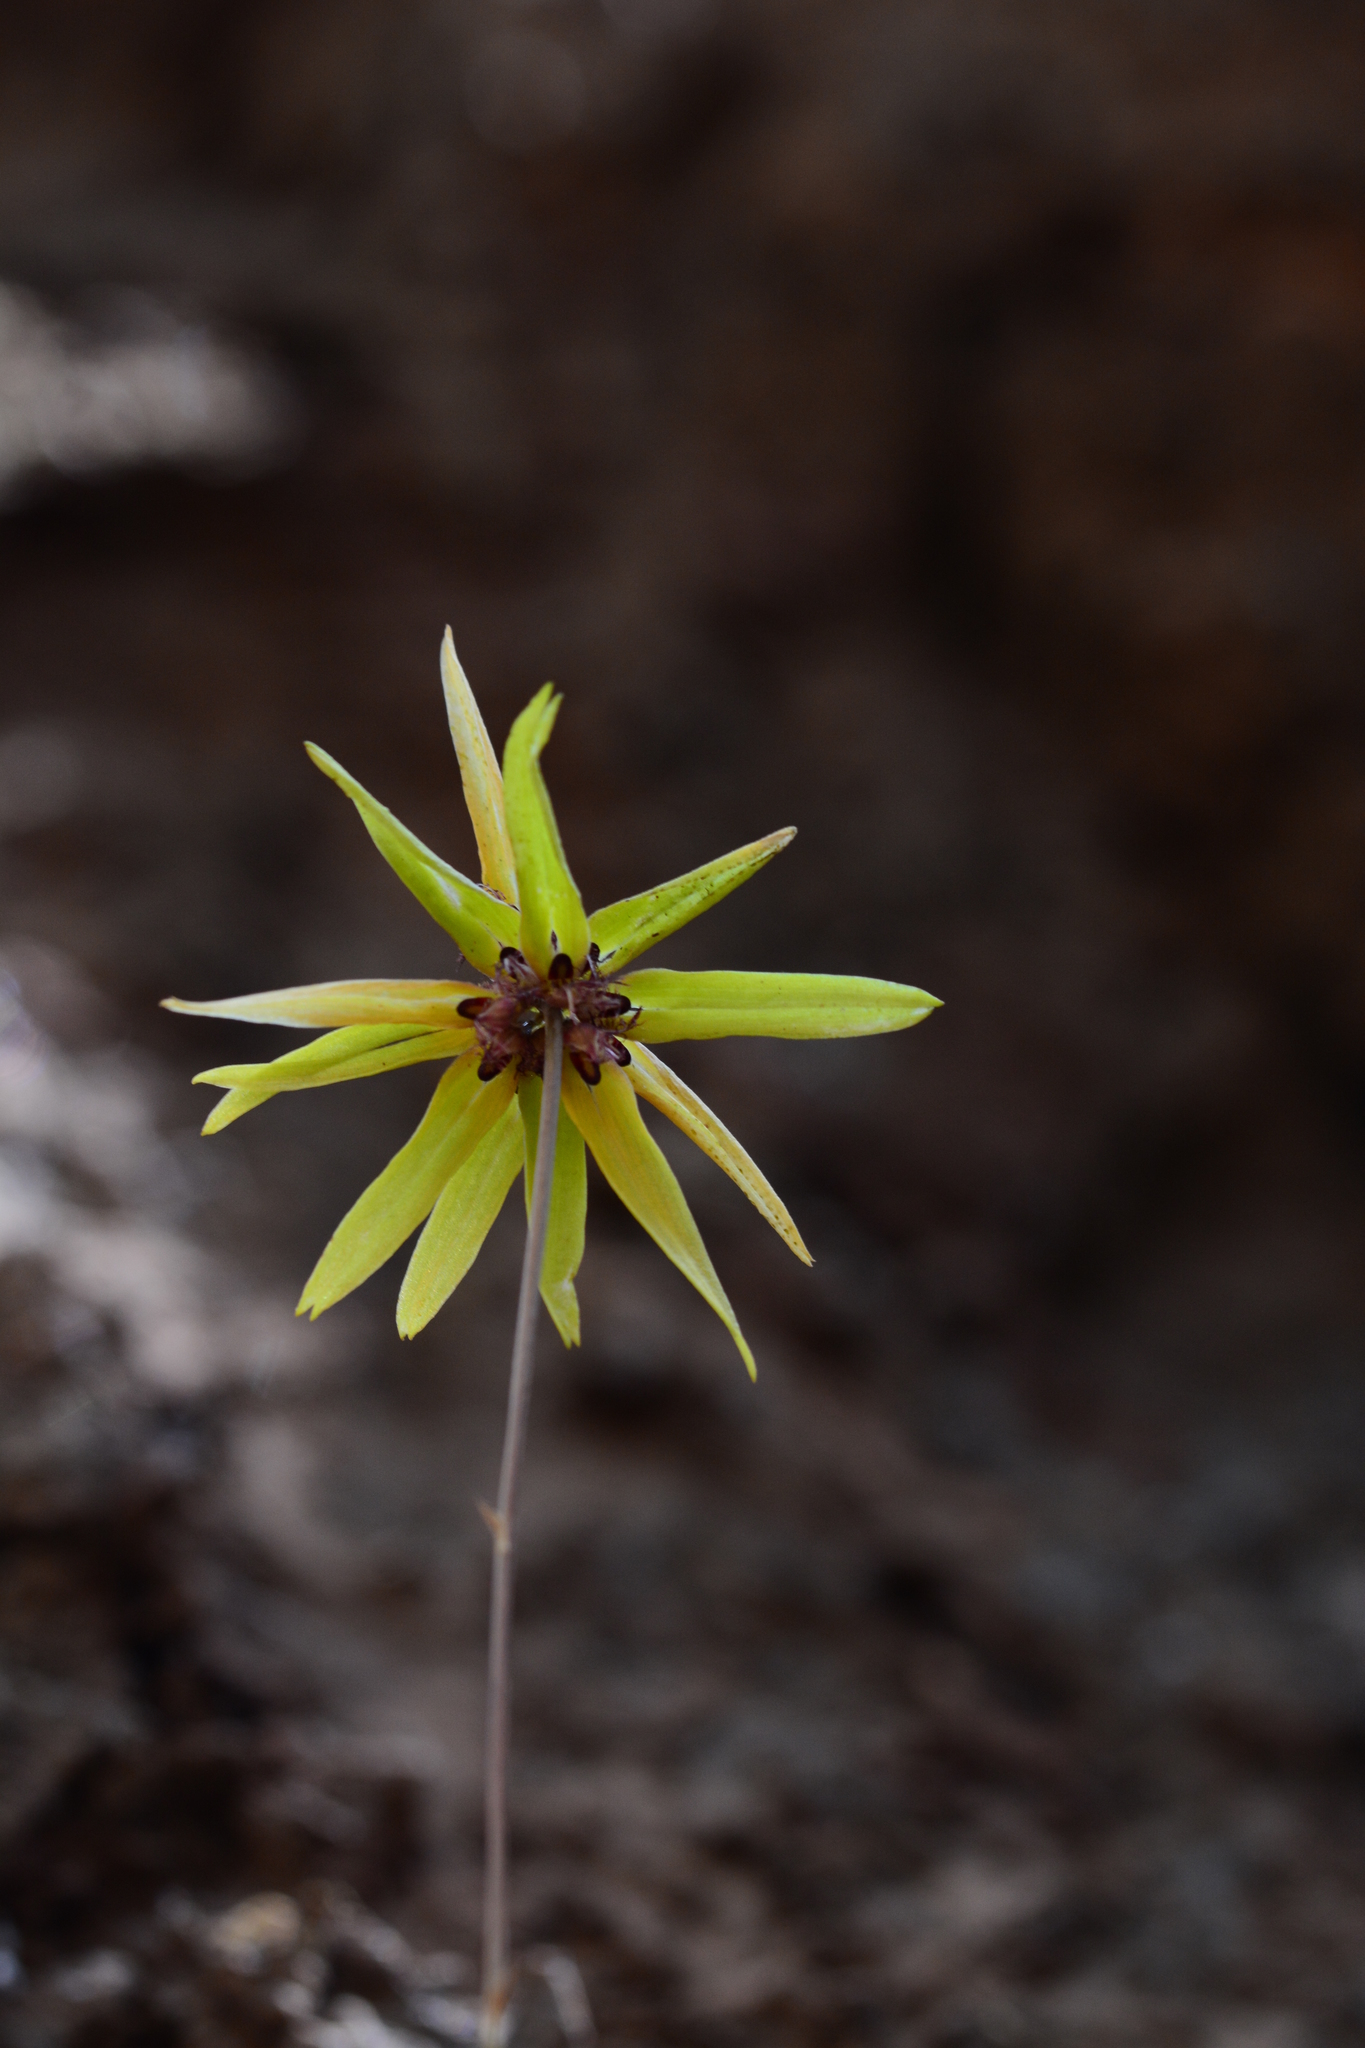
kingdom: Plantae
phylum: Tracheophyta
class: Liliopsida
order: Asparagales
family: Orchidaceae
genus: Bulbophyllum
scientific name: Bulbophyllum fimbriatum
